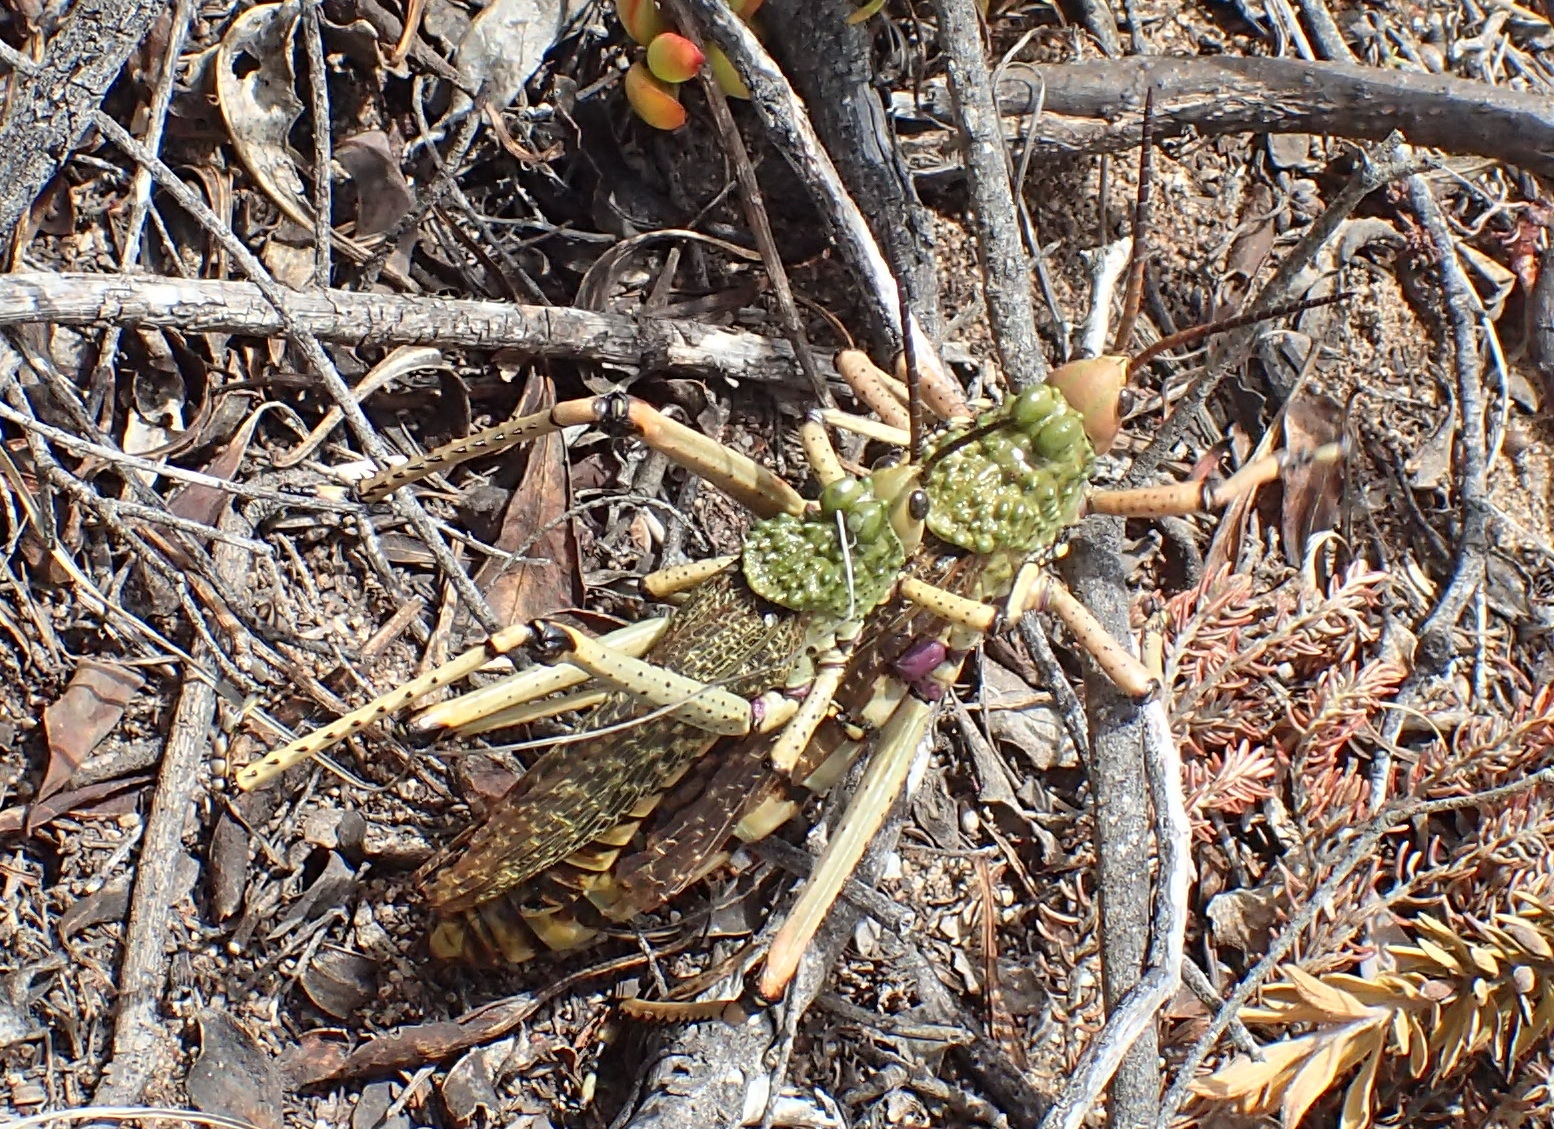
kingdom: Animalia
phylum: Arthropoda
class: Insecta
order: Orthoptera
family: Pyrgomorphidae
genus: Phymateus
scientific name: Phymateus leprosus
